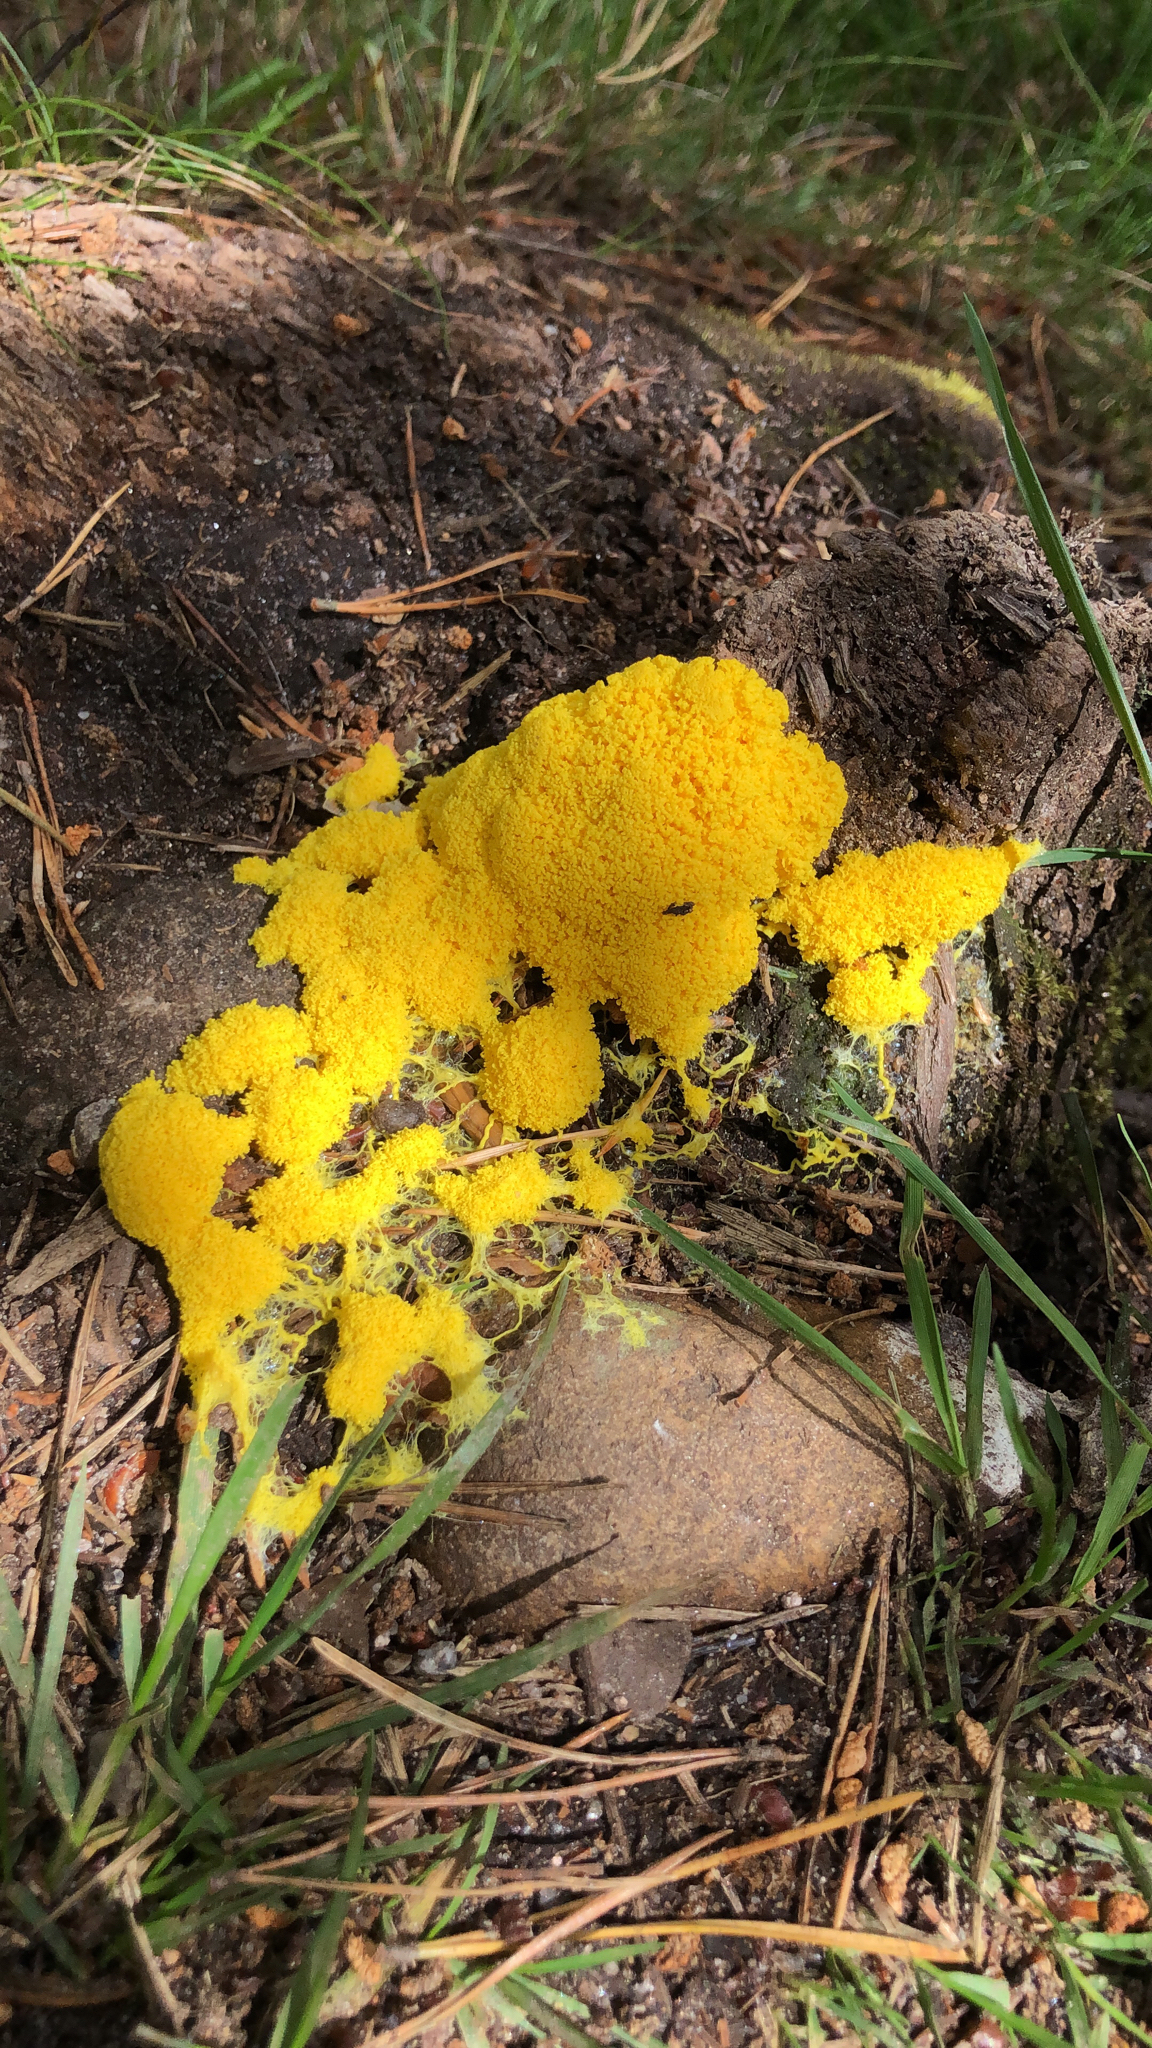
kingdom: Protozoa
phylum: Mycetozoa
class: Myxomycetes
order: Physarales
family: Physaraceae
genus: Fuligo
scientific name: Fuligo septica
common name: Dog vomit slime mold
